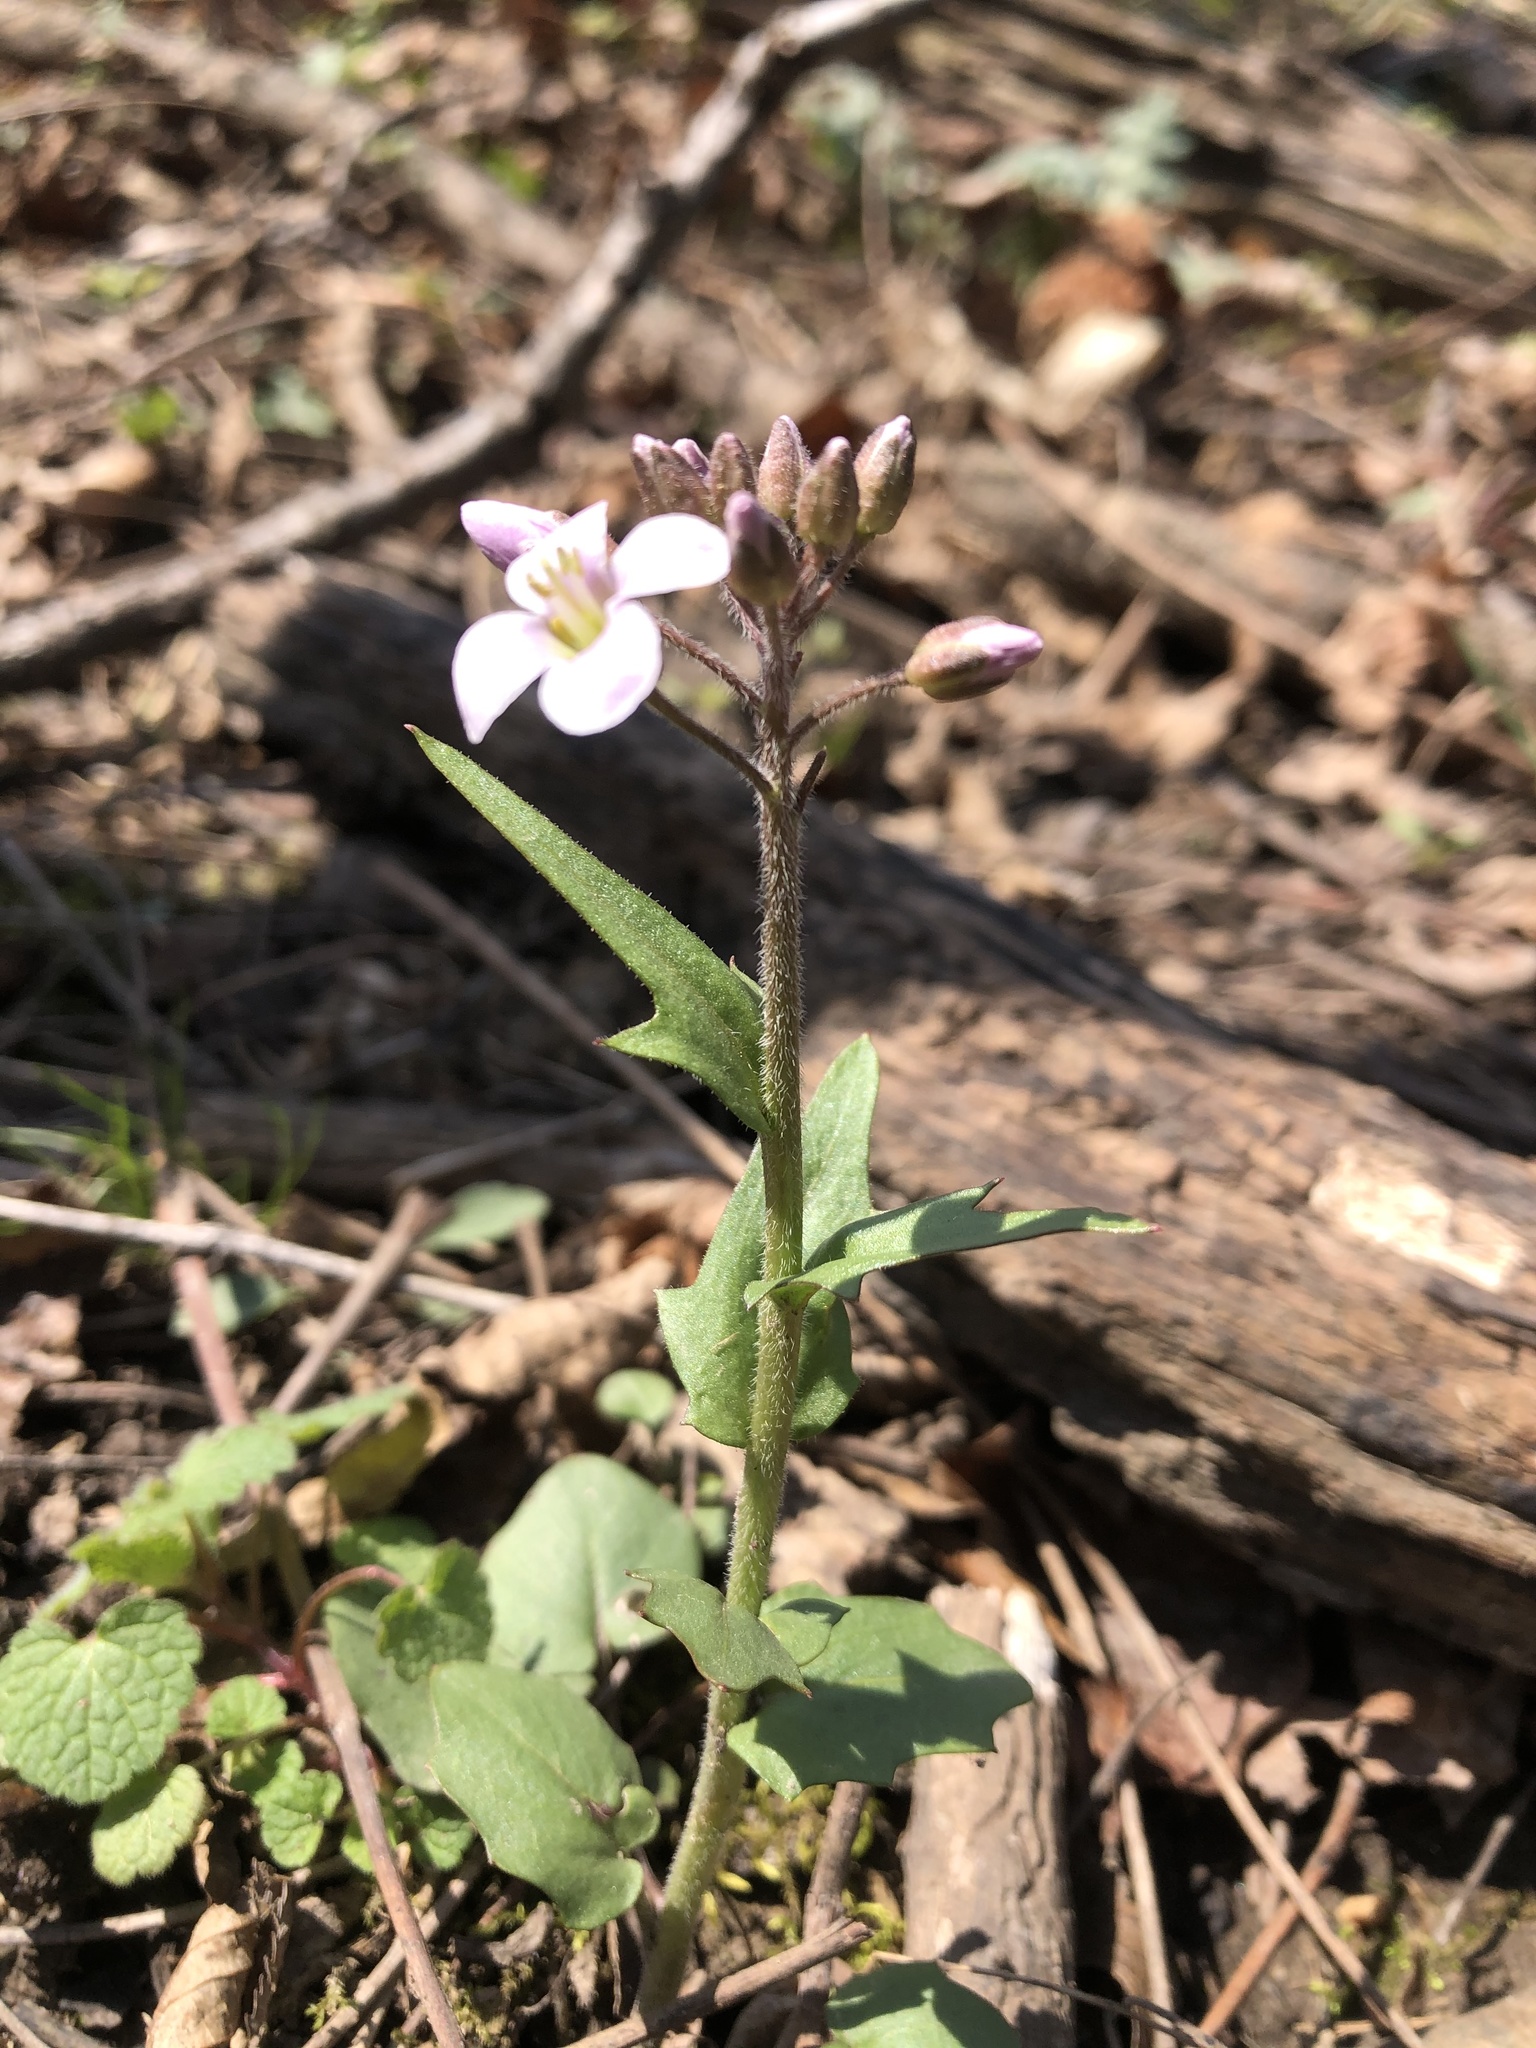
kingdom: Plantae
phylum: Tracheophyta
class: Magnoliopsida
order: Brassicales
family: Brassicaceae
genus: Cardamine
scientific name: Cardamine douglassii
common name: Purple cress
